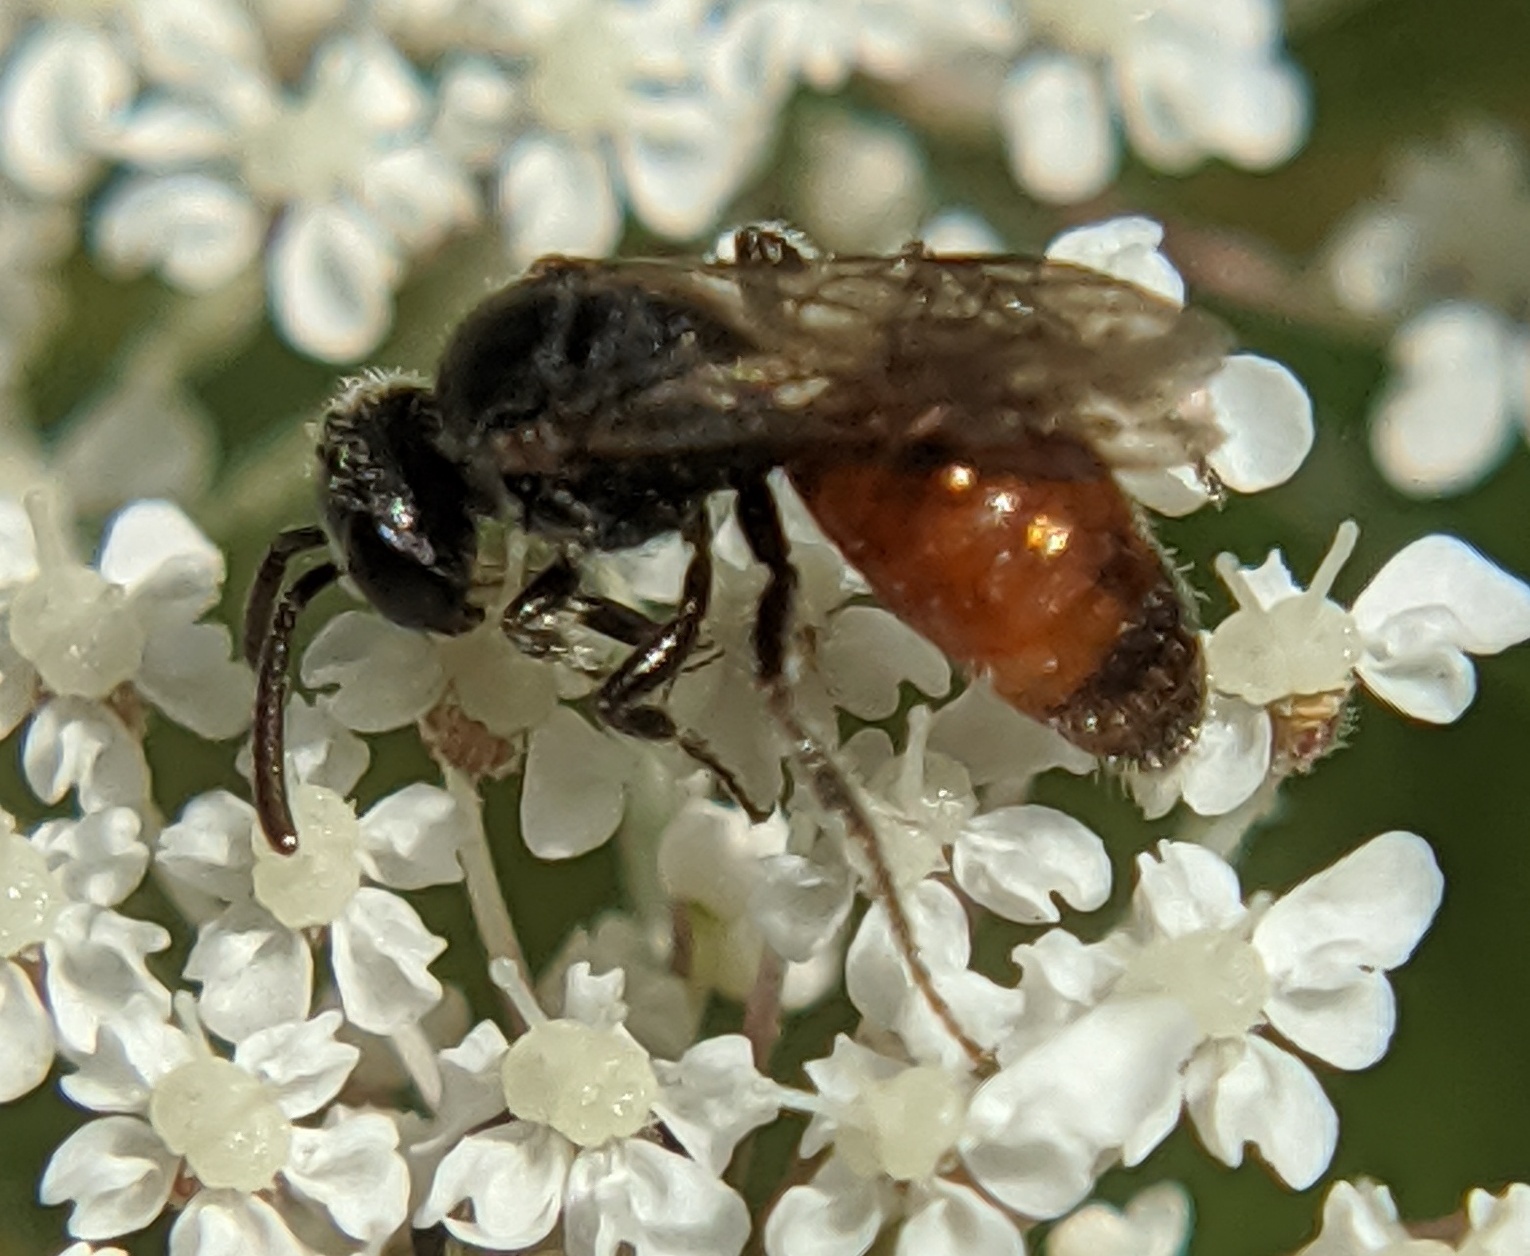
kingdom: Animalia
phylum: Arthropoda
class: Insecta
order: Hymenoptera
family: Halictidae
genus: Sphecodes
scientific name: Sphecodes
